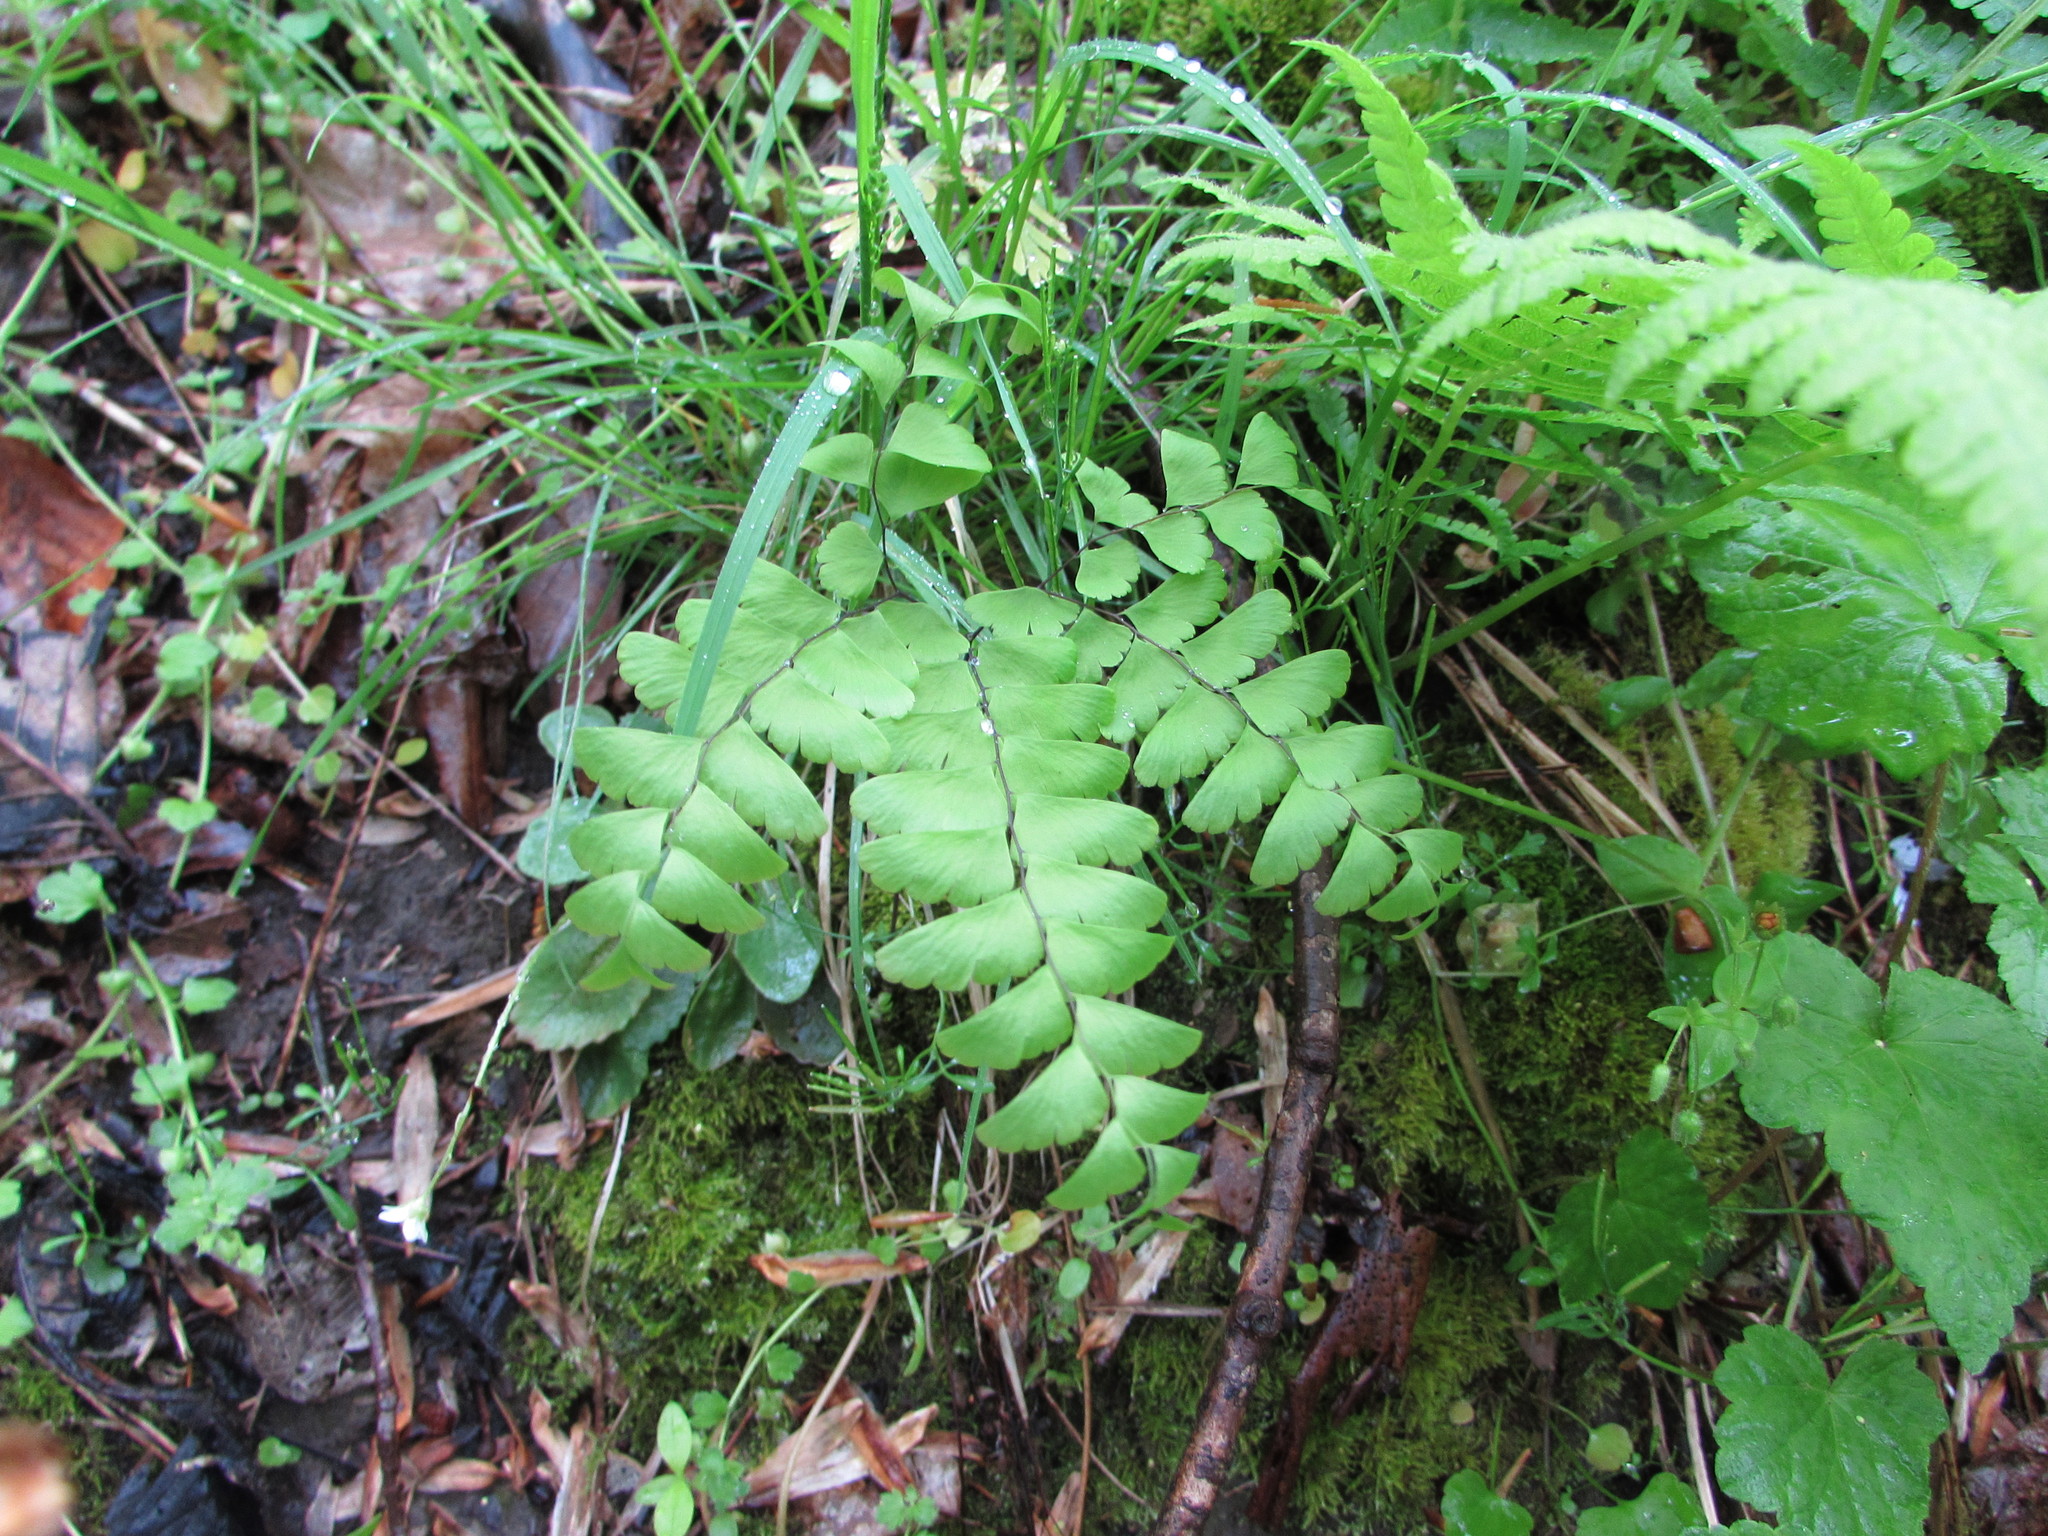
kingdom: Plantae
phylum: Tracheophyta
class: Polypodiopsida
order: Polypodiales
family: Pteridaceae
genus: Adiantum
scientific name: Adiantum pedatum
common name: Five-finger fern
